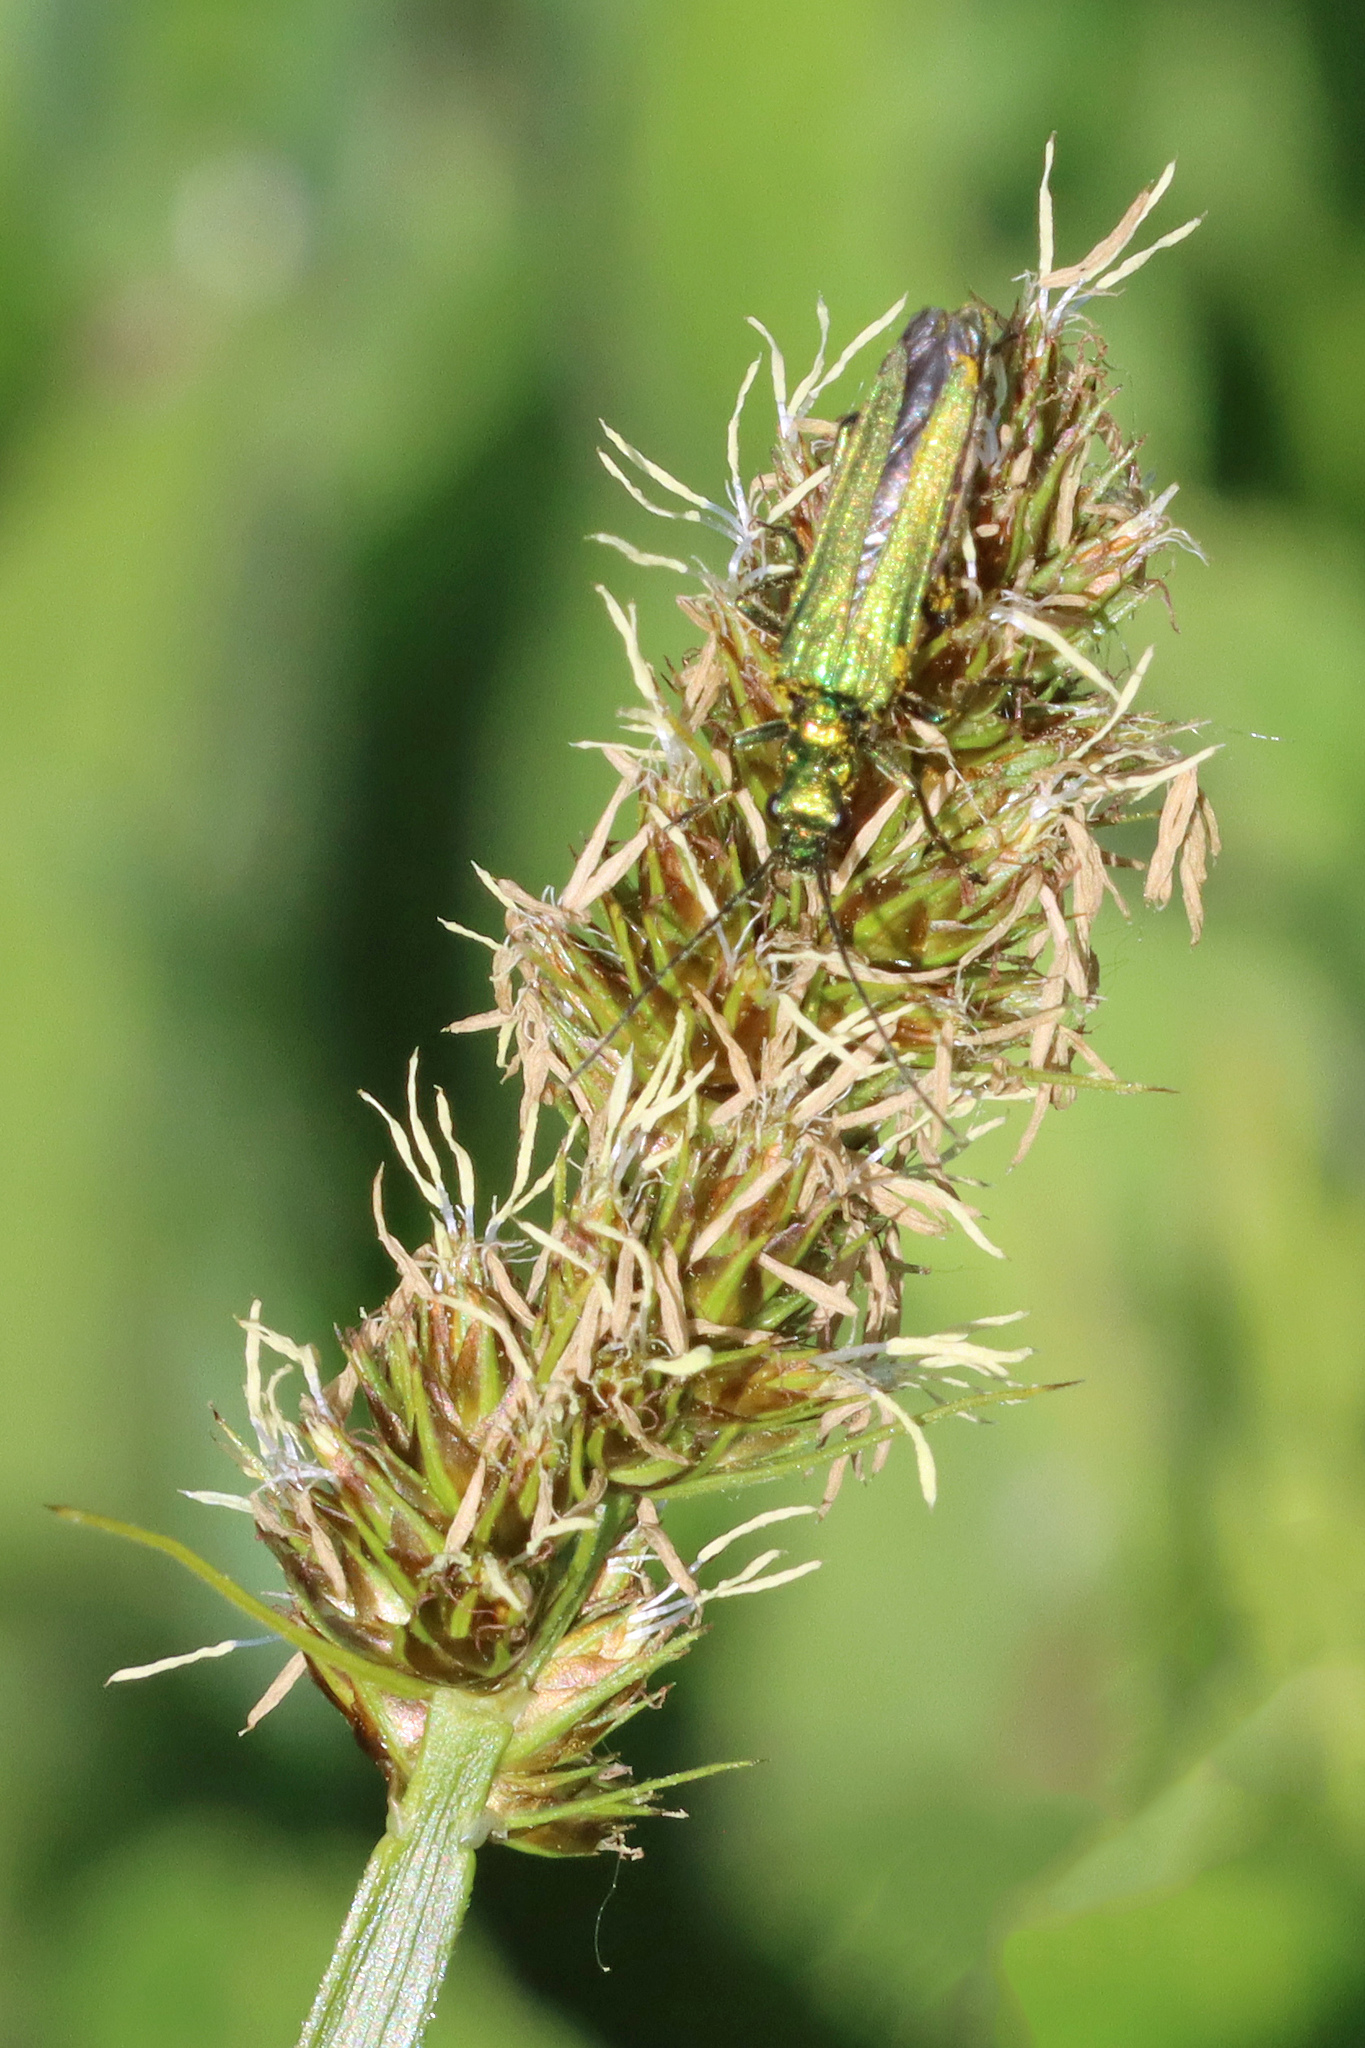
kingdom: Animalia
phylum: Arthropoda
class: Insecta
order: Coleoptera
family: Oedemeridae
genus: Oedemera
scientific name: Oedemera nobilis
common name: Swollen-thighed beetle
